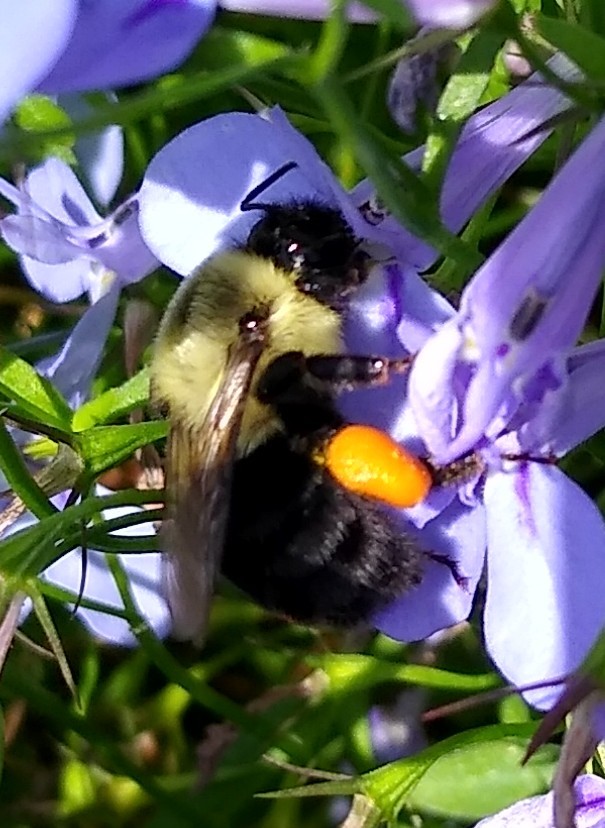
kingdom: Animalia
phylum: Arthropoda
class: Insecta
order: Hymenoptera
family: Apidae
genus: Bombus
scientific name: Bombus impatiens
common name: Common eastern bumble bee
